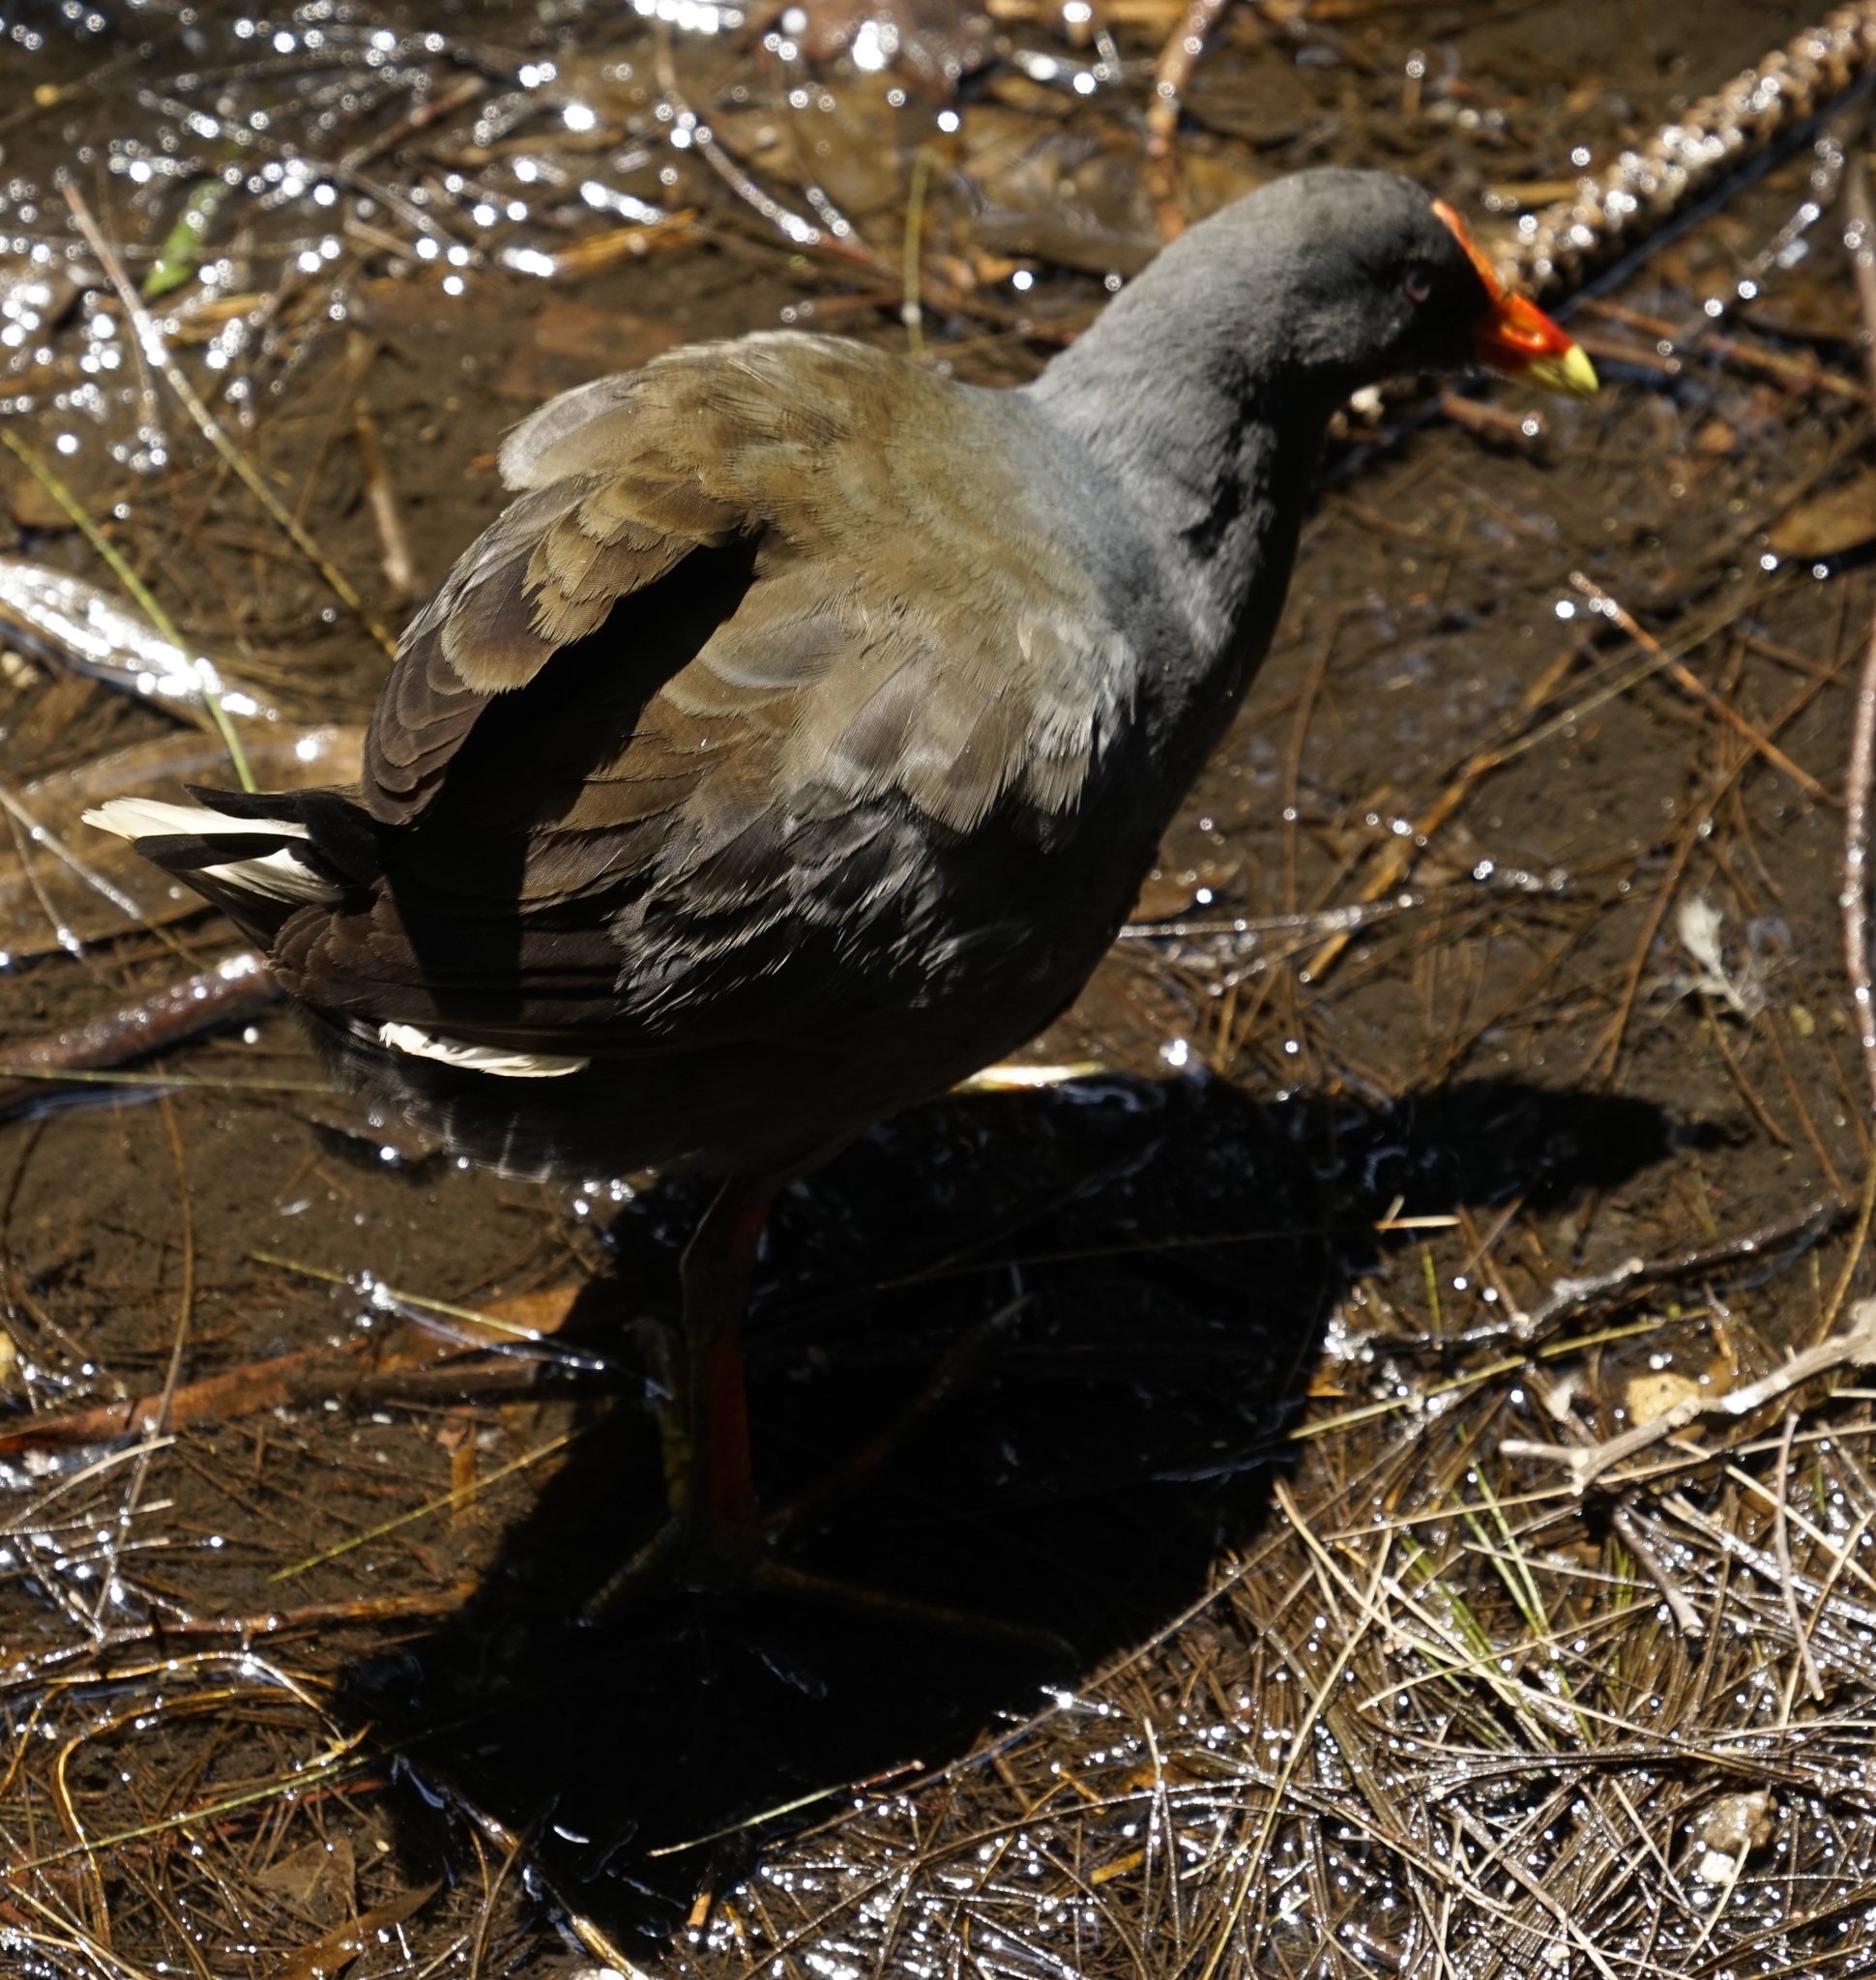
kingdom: Animalia
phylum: Chordata
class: Aves
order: Gruiformes
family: Rallidae
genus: Gallinula
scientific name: Gallinula tenebrosa
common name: Dusky moorhen
